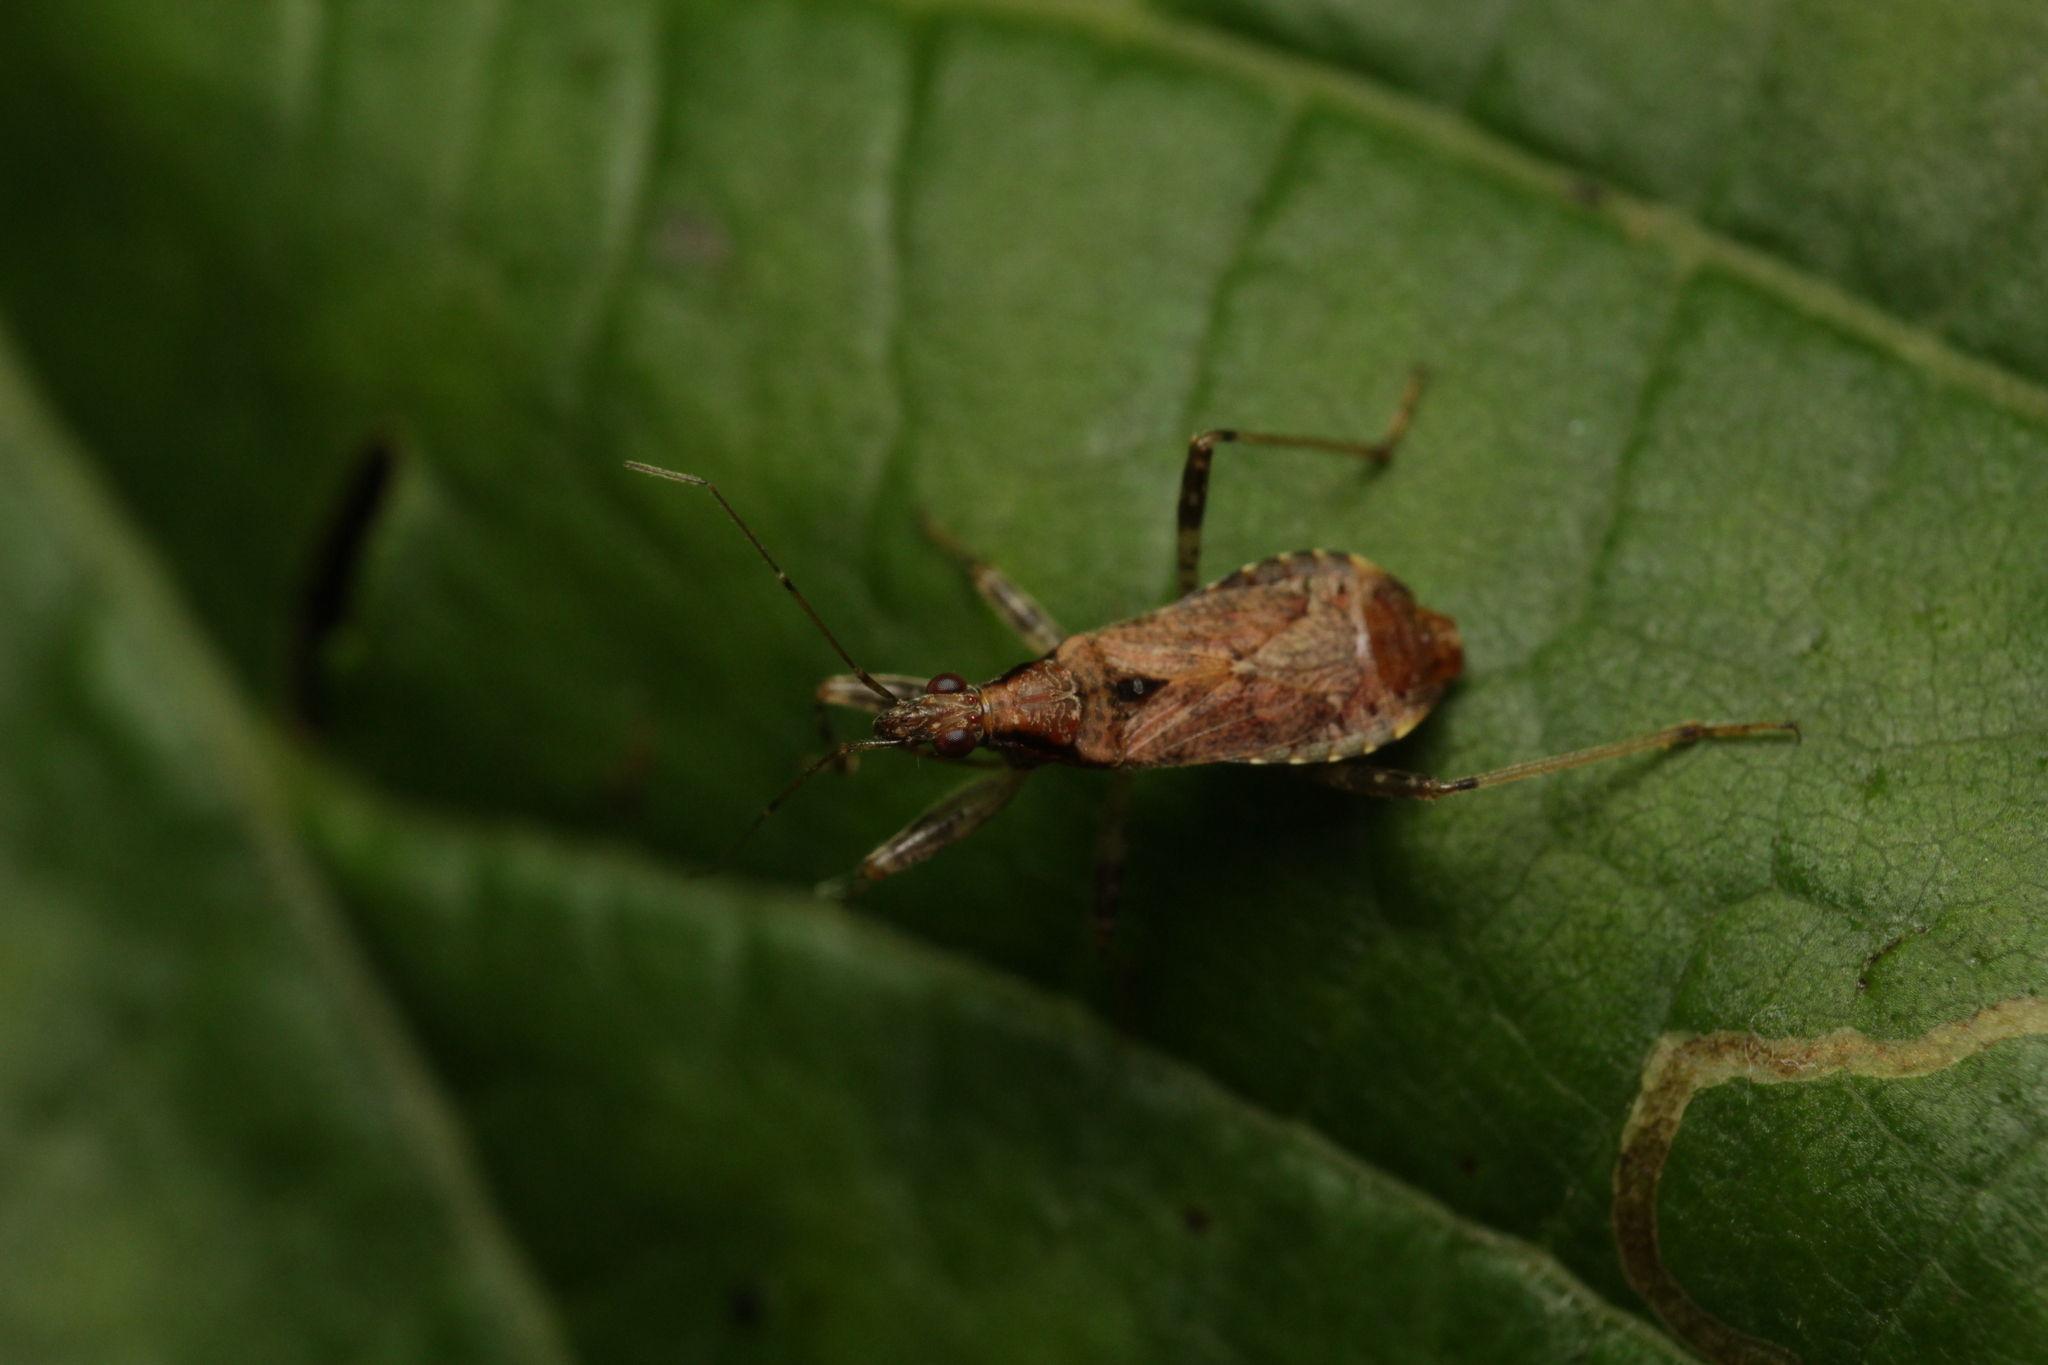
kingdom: Animalia
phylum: Arthropoda
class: Insecta
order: Hemiptera
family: Nabidae
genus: Himacerus
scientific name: Himacerus mirmicoides
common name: Ant damsel bug
